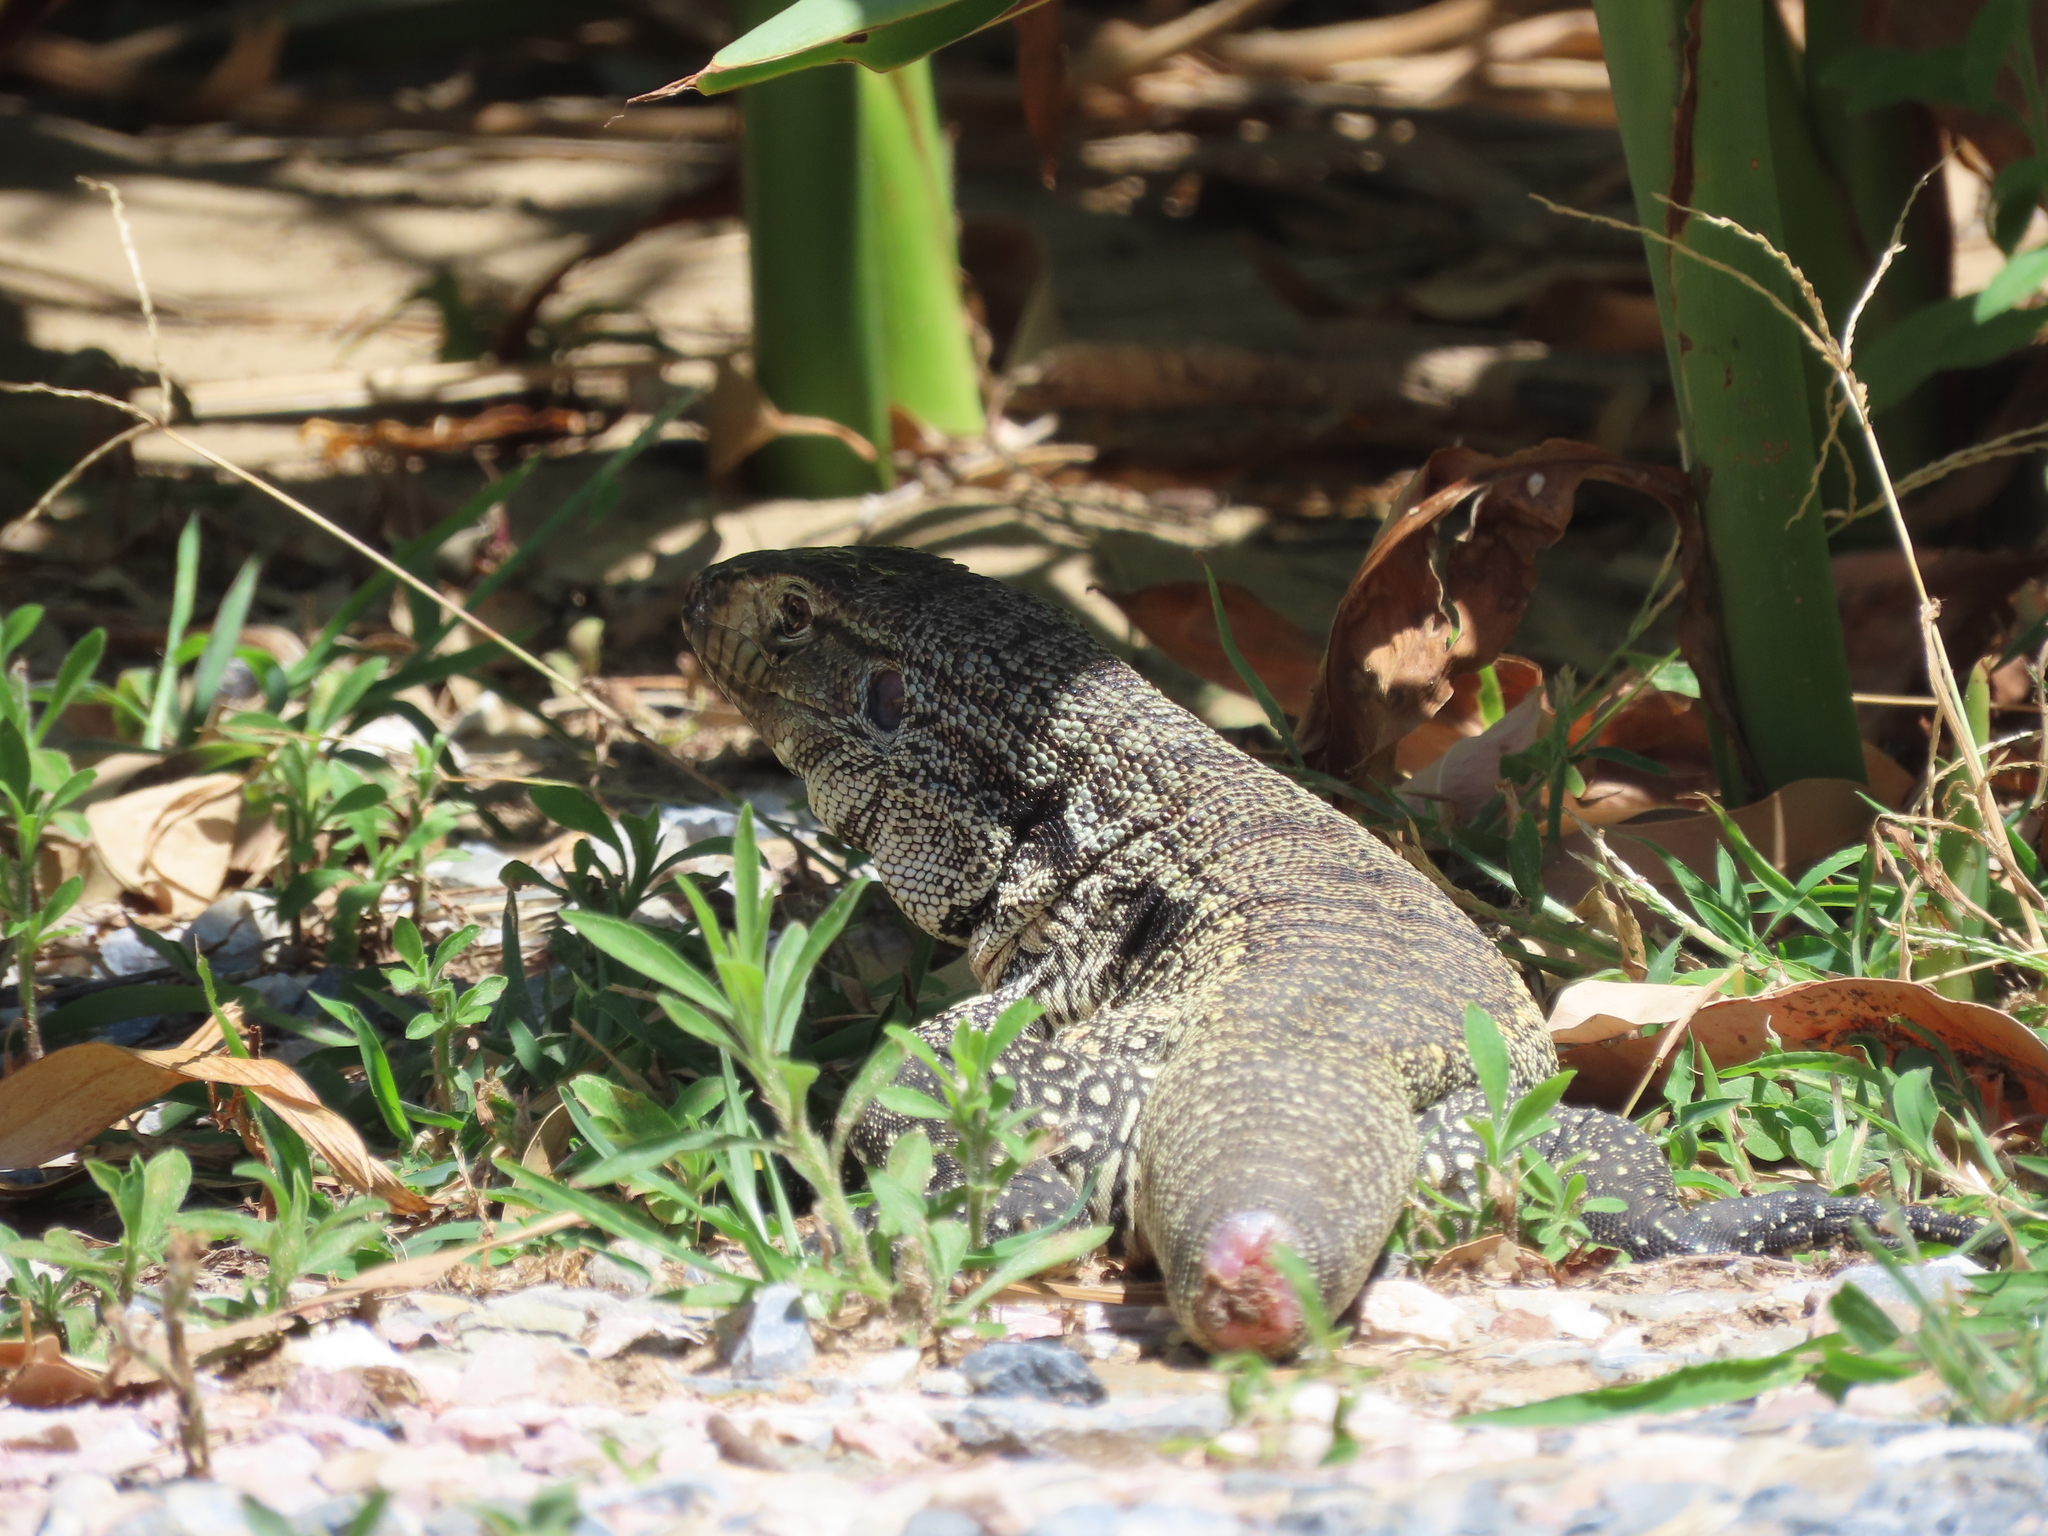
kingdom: Animalia
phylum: Chordata
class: Squamata
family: Teiidae
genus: Salvator
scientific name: Salvator merianae
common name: Argentine black and white tegu
